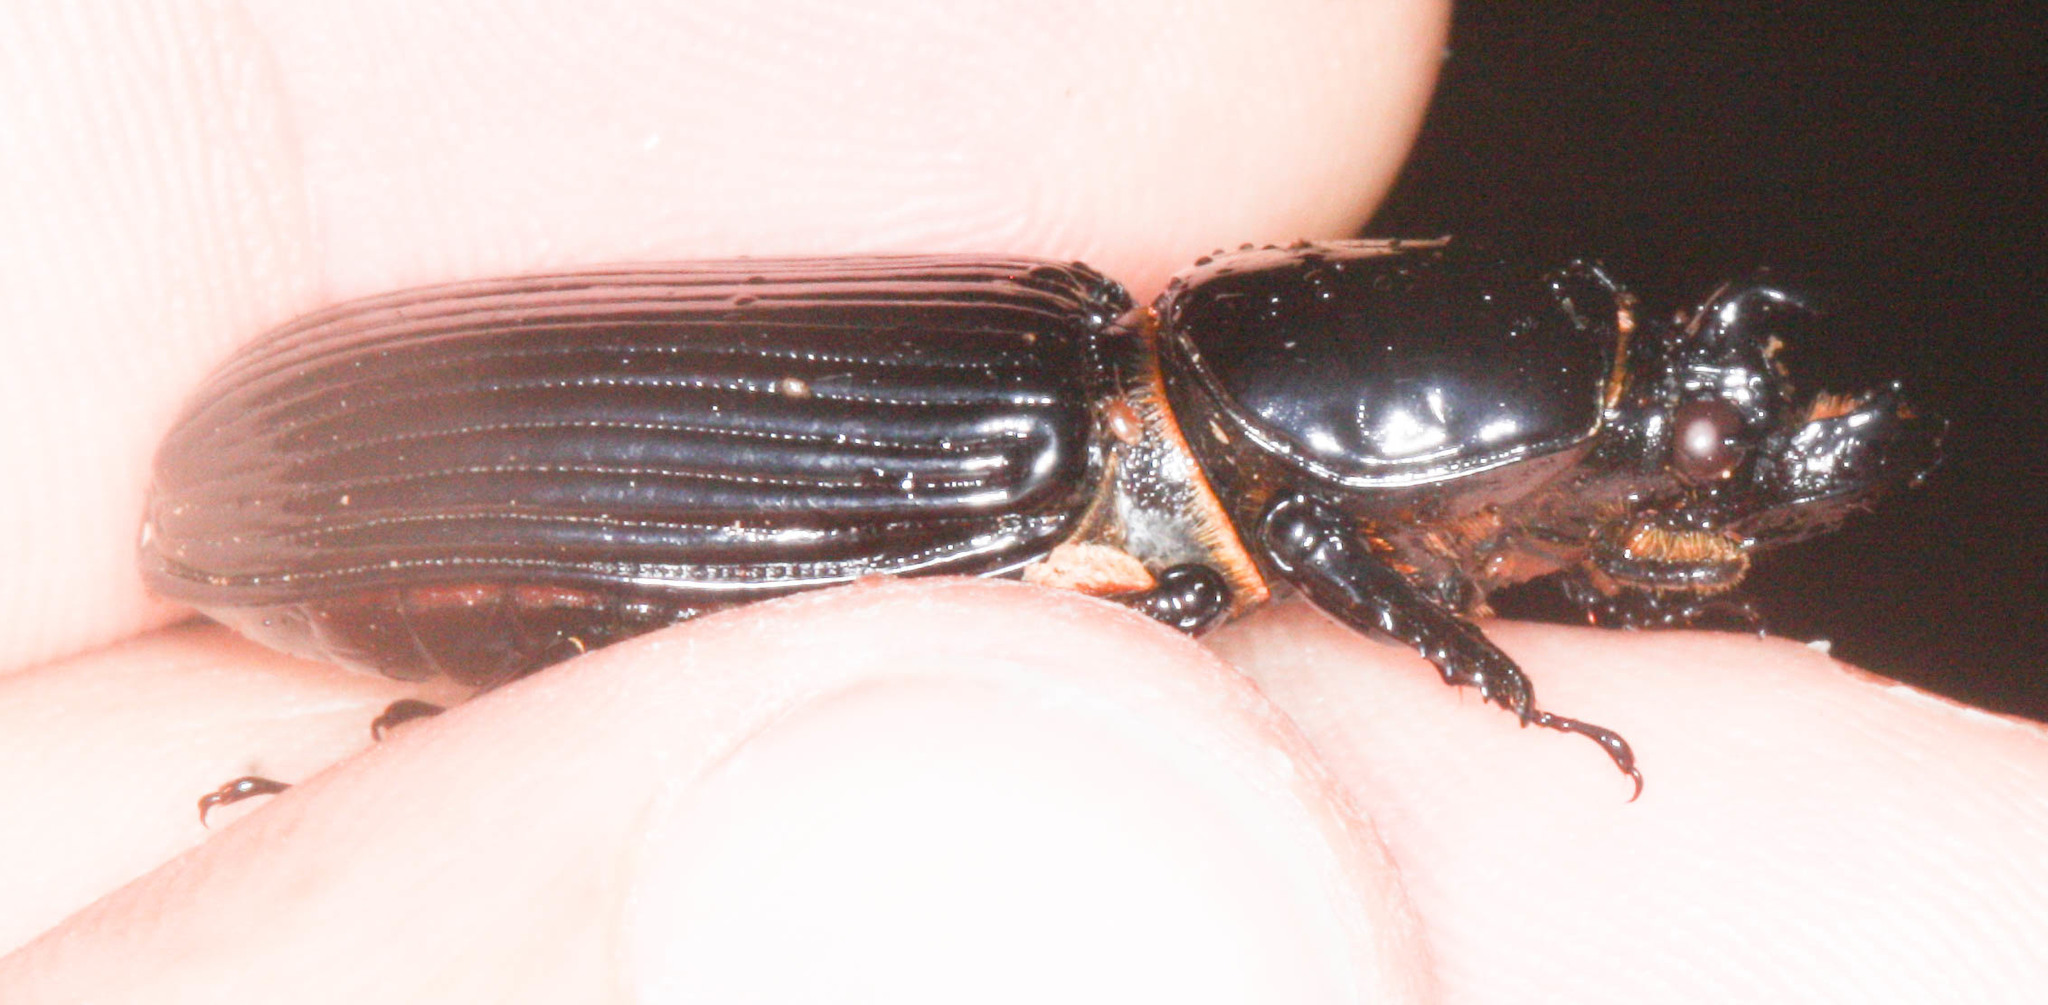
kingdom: Animalia
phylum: Arthropoda
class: Insecta
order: Coleoptera
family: Passalidae
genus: Odontotaenius
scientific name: Odontotaenius disjunctus
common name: Patent leather beetle
